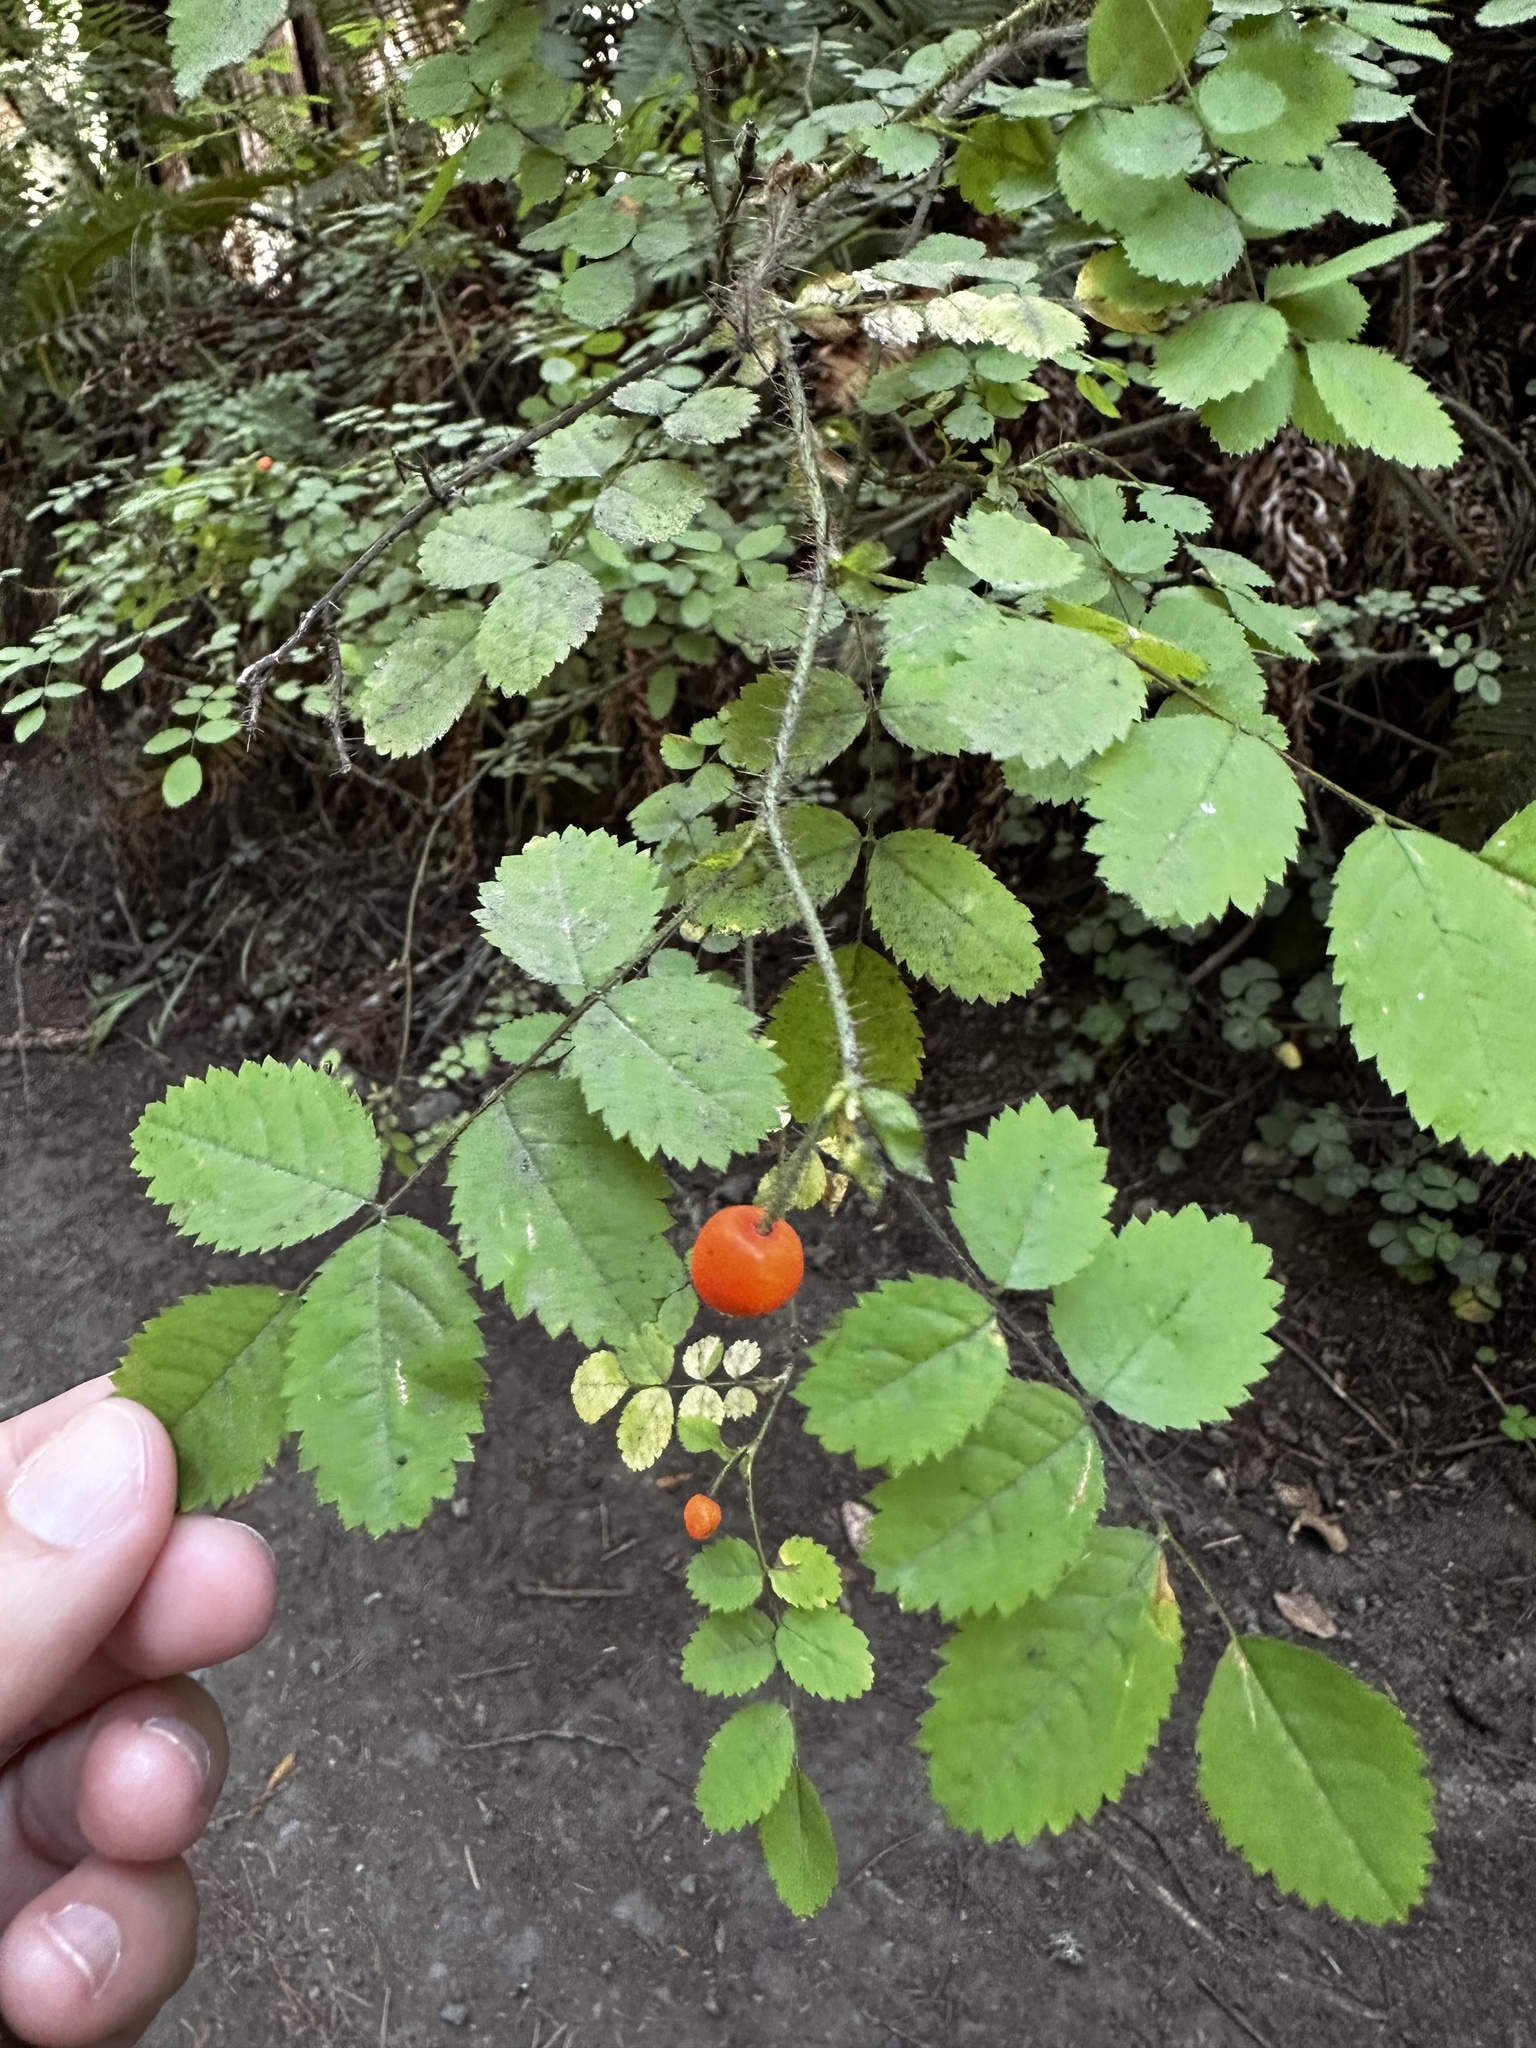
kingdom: Plantae
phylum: Tracheophyta
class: Magnoliopsida
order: Rosales
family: Rosaceae
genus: Rosa
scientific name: Rosa gymnocarpa
